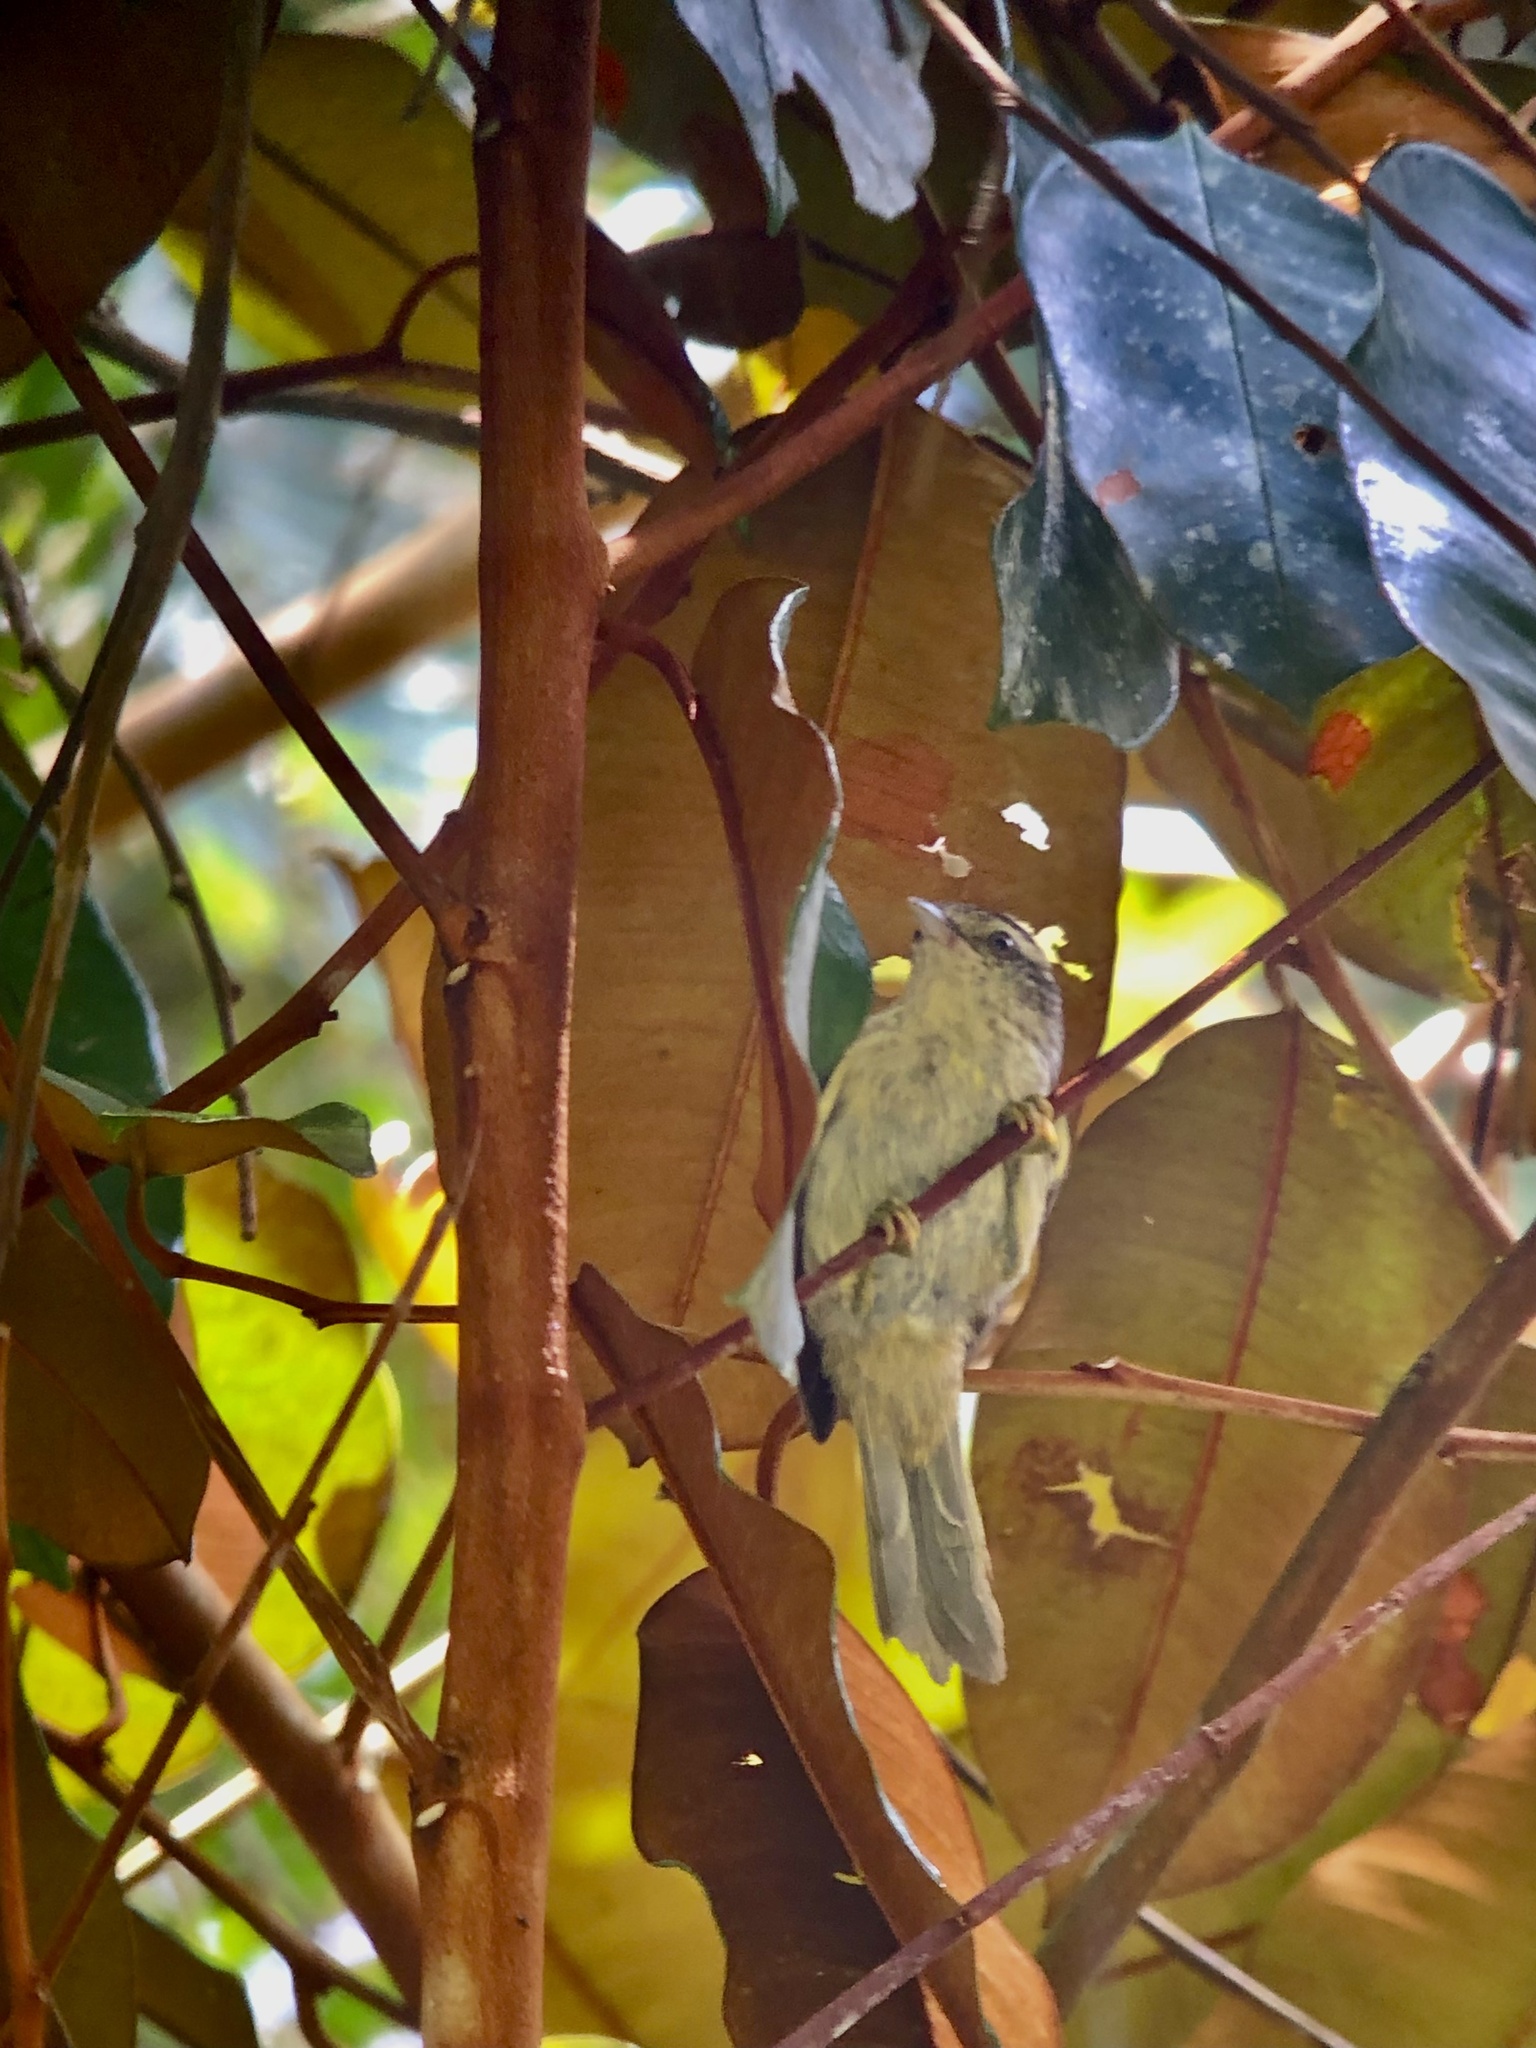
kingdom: Animalia
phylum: Chordata
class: Aves
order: Passeriformes
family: Furnariidae
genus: Xenerpestes
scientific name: Xenerpestes minlosi
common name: Double-banded graytail
